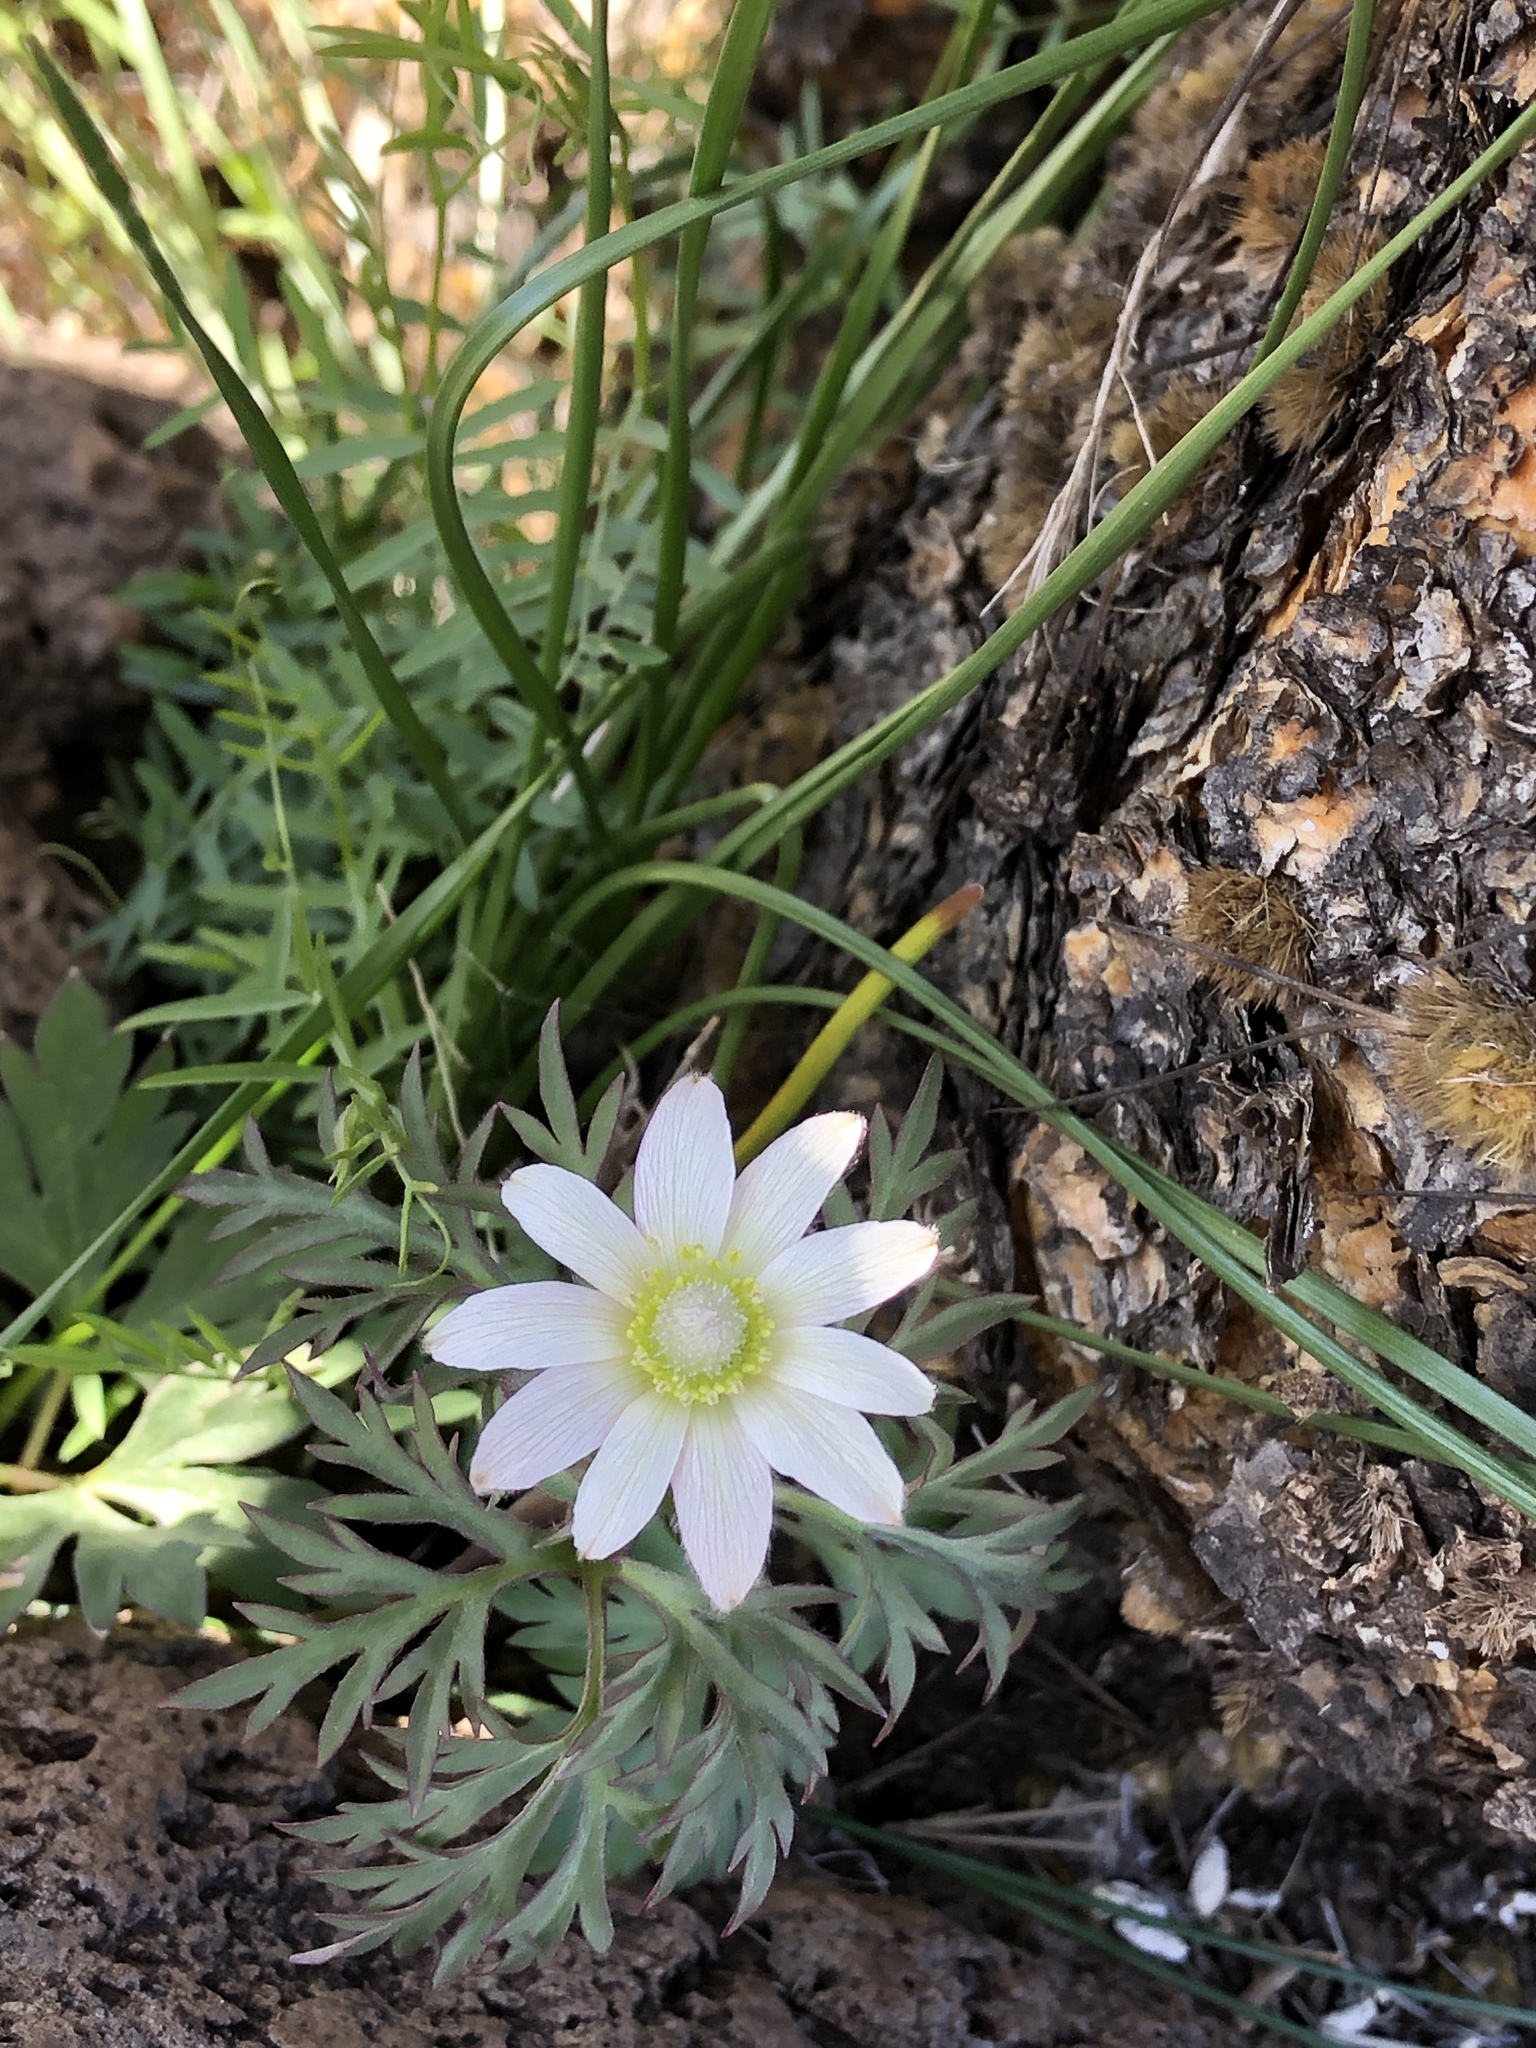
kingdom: Plantae
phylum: Tracheophyta
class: Magnoliopsida
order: Ranunculales
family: Ranunculaceae
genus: Anemone
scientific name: Anemone tuberosa
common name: Desert anemone
